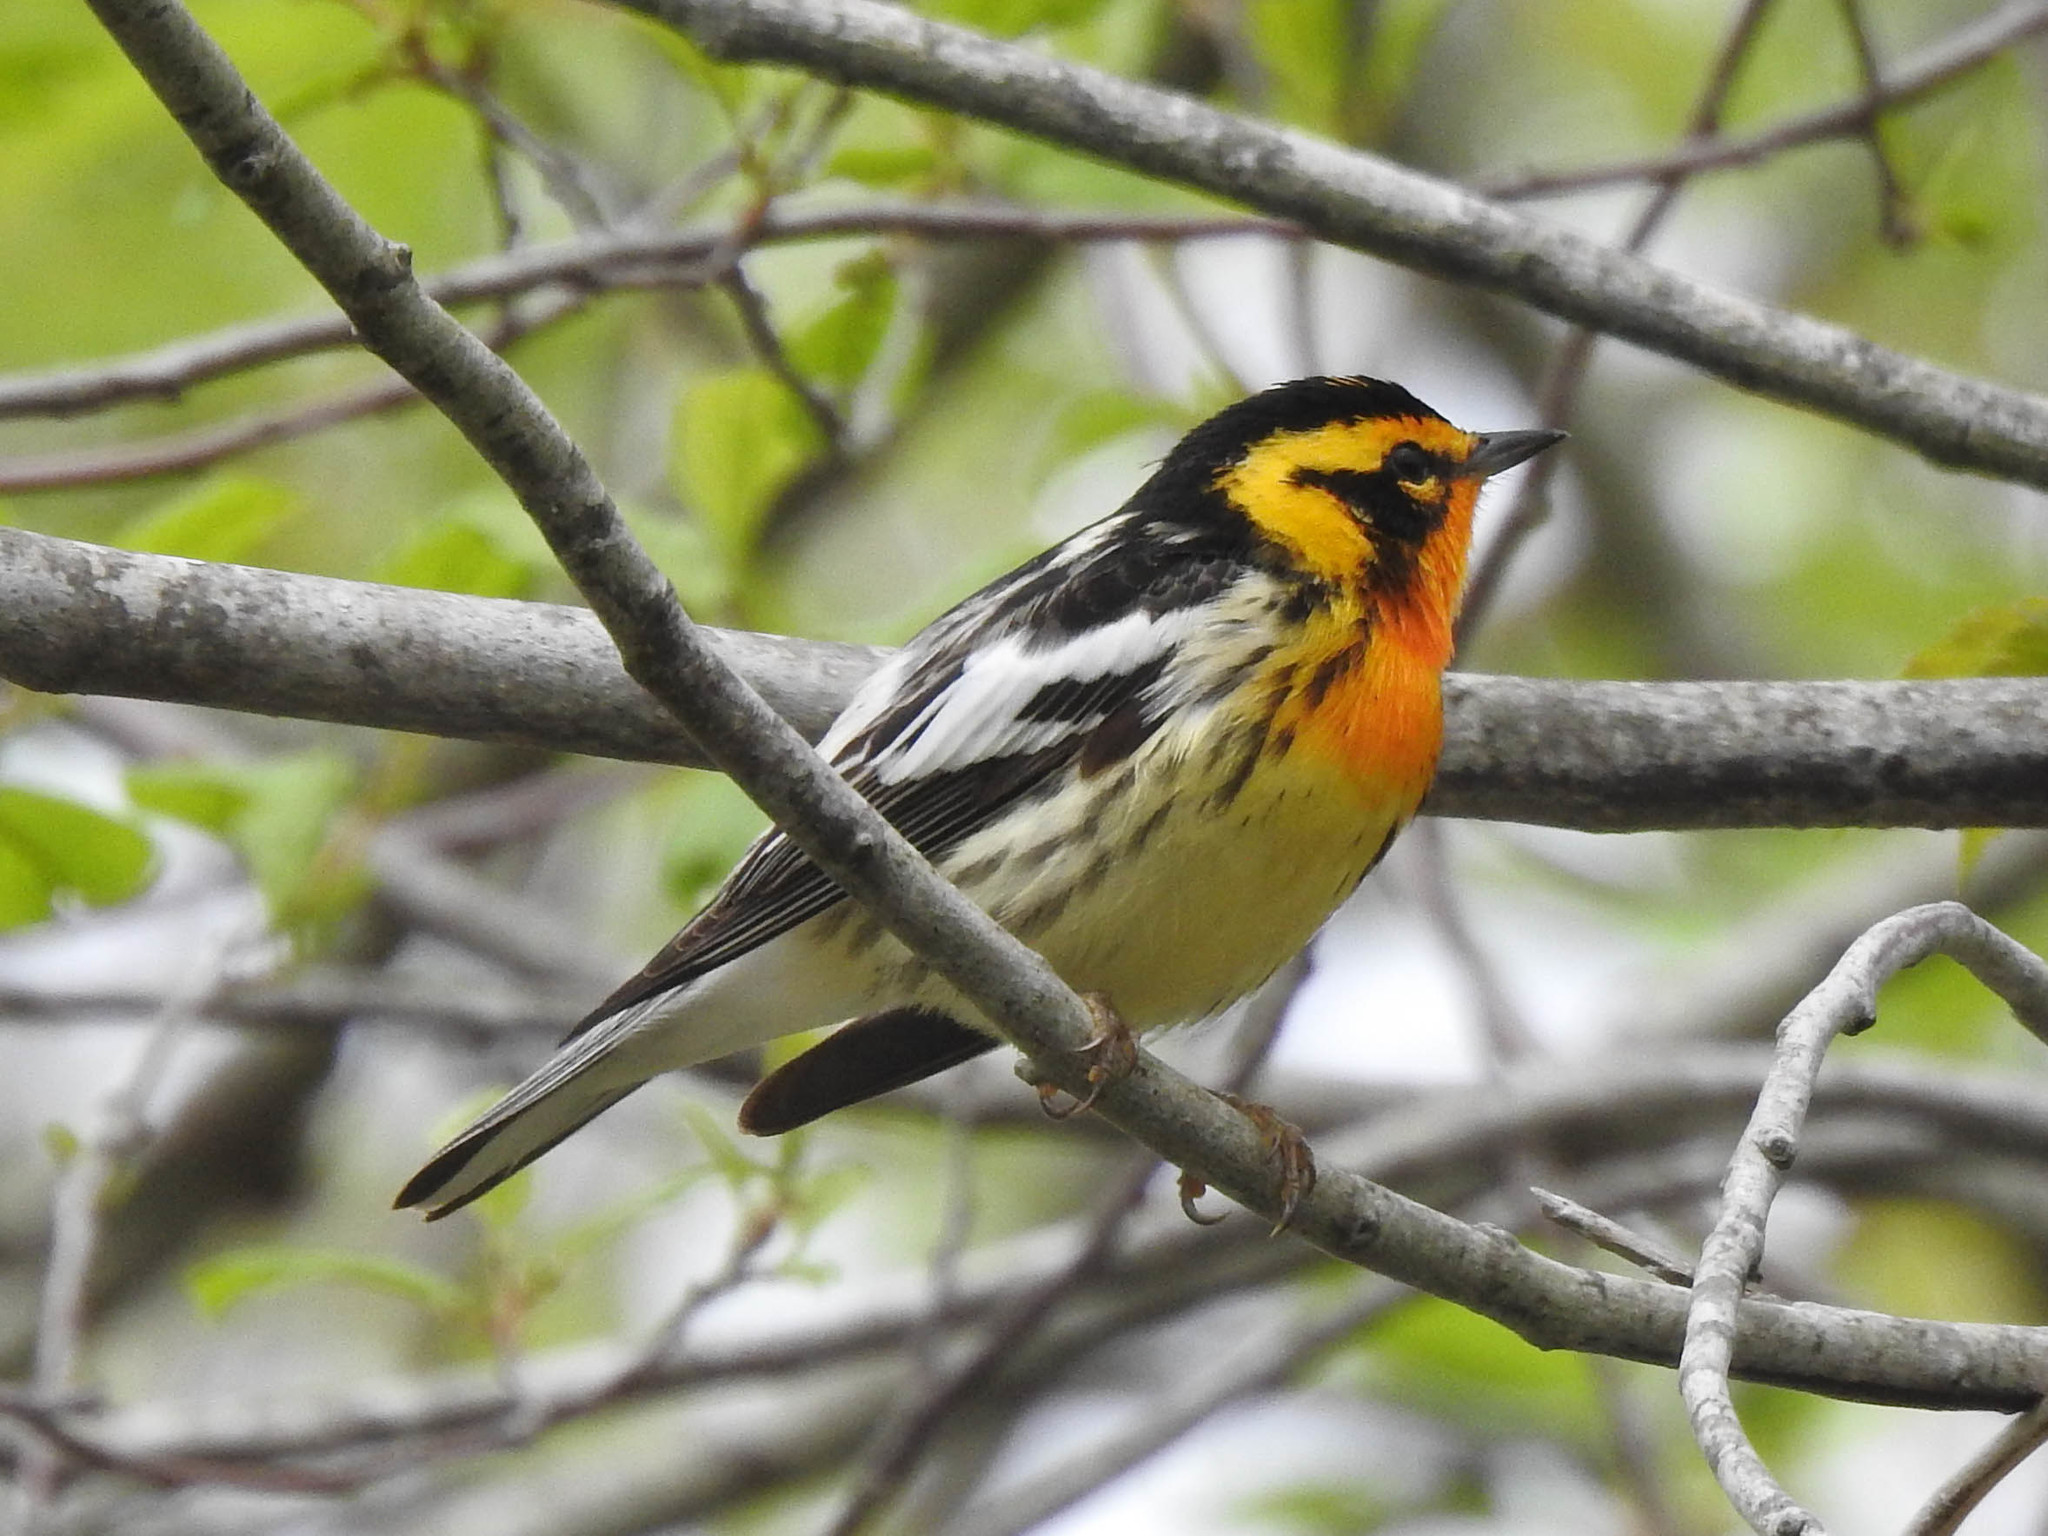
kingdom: Animalia
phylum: Chordata
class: Aves
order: Passeriformes
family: Parulidae
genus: Setophaga
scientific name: Setophaga fusca
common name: Blackburnian warbler
